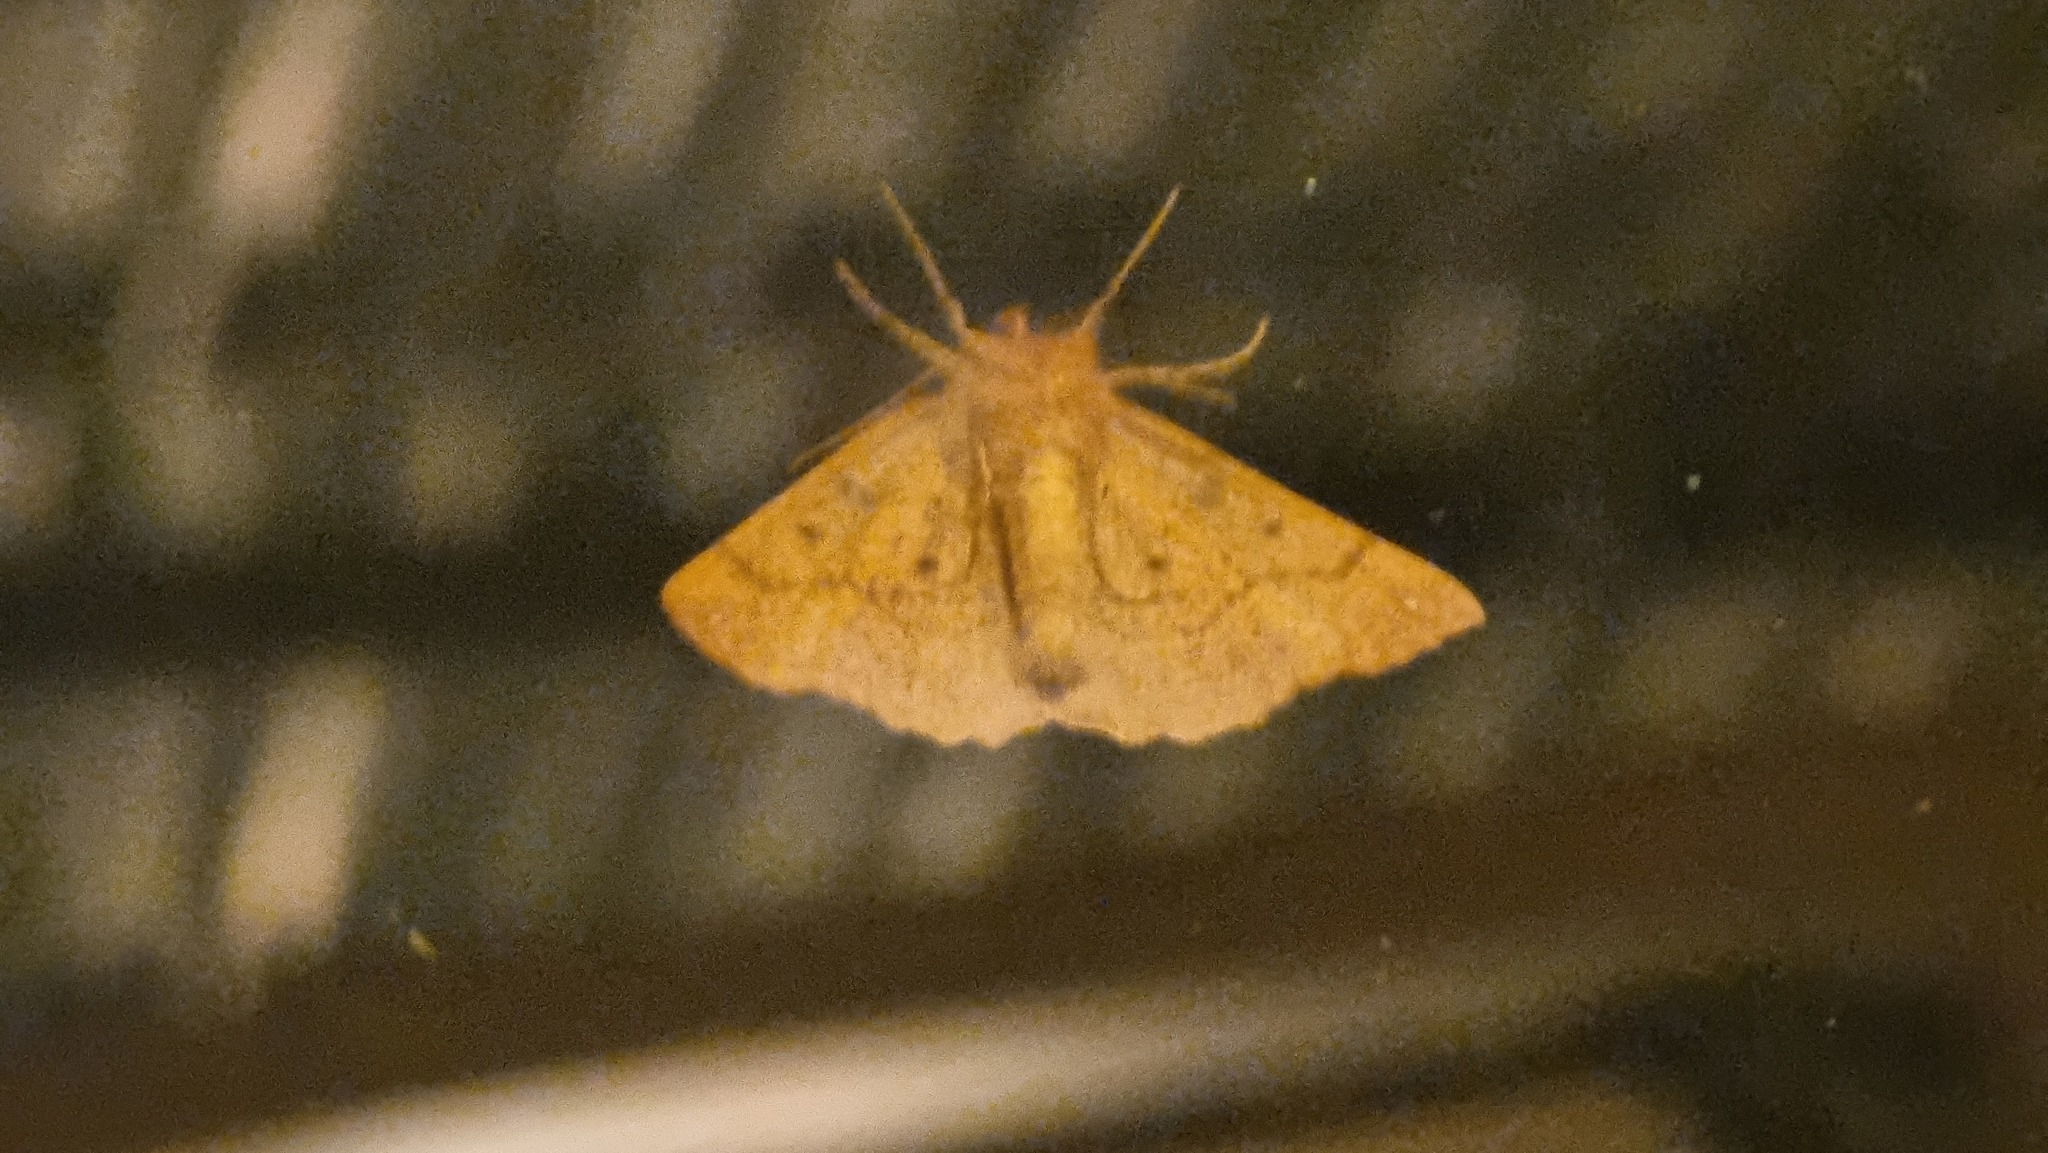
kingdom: Animalia
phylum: Arthropoda
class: Insecta
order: Lepidoptera
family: Geometridae
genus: Colotois
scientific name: Colotois pennaria
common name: Feathered thorn
